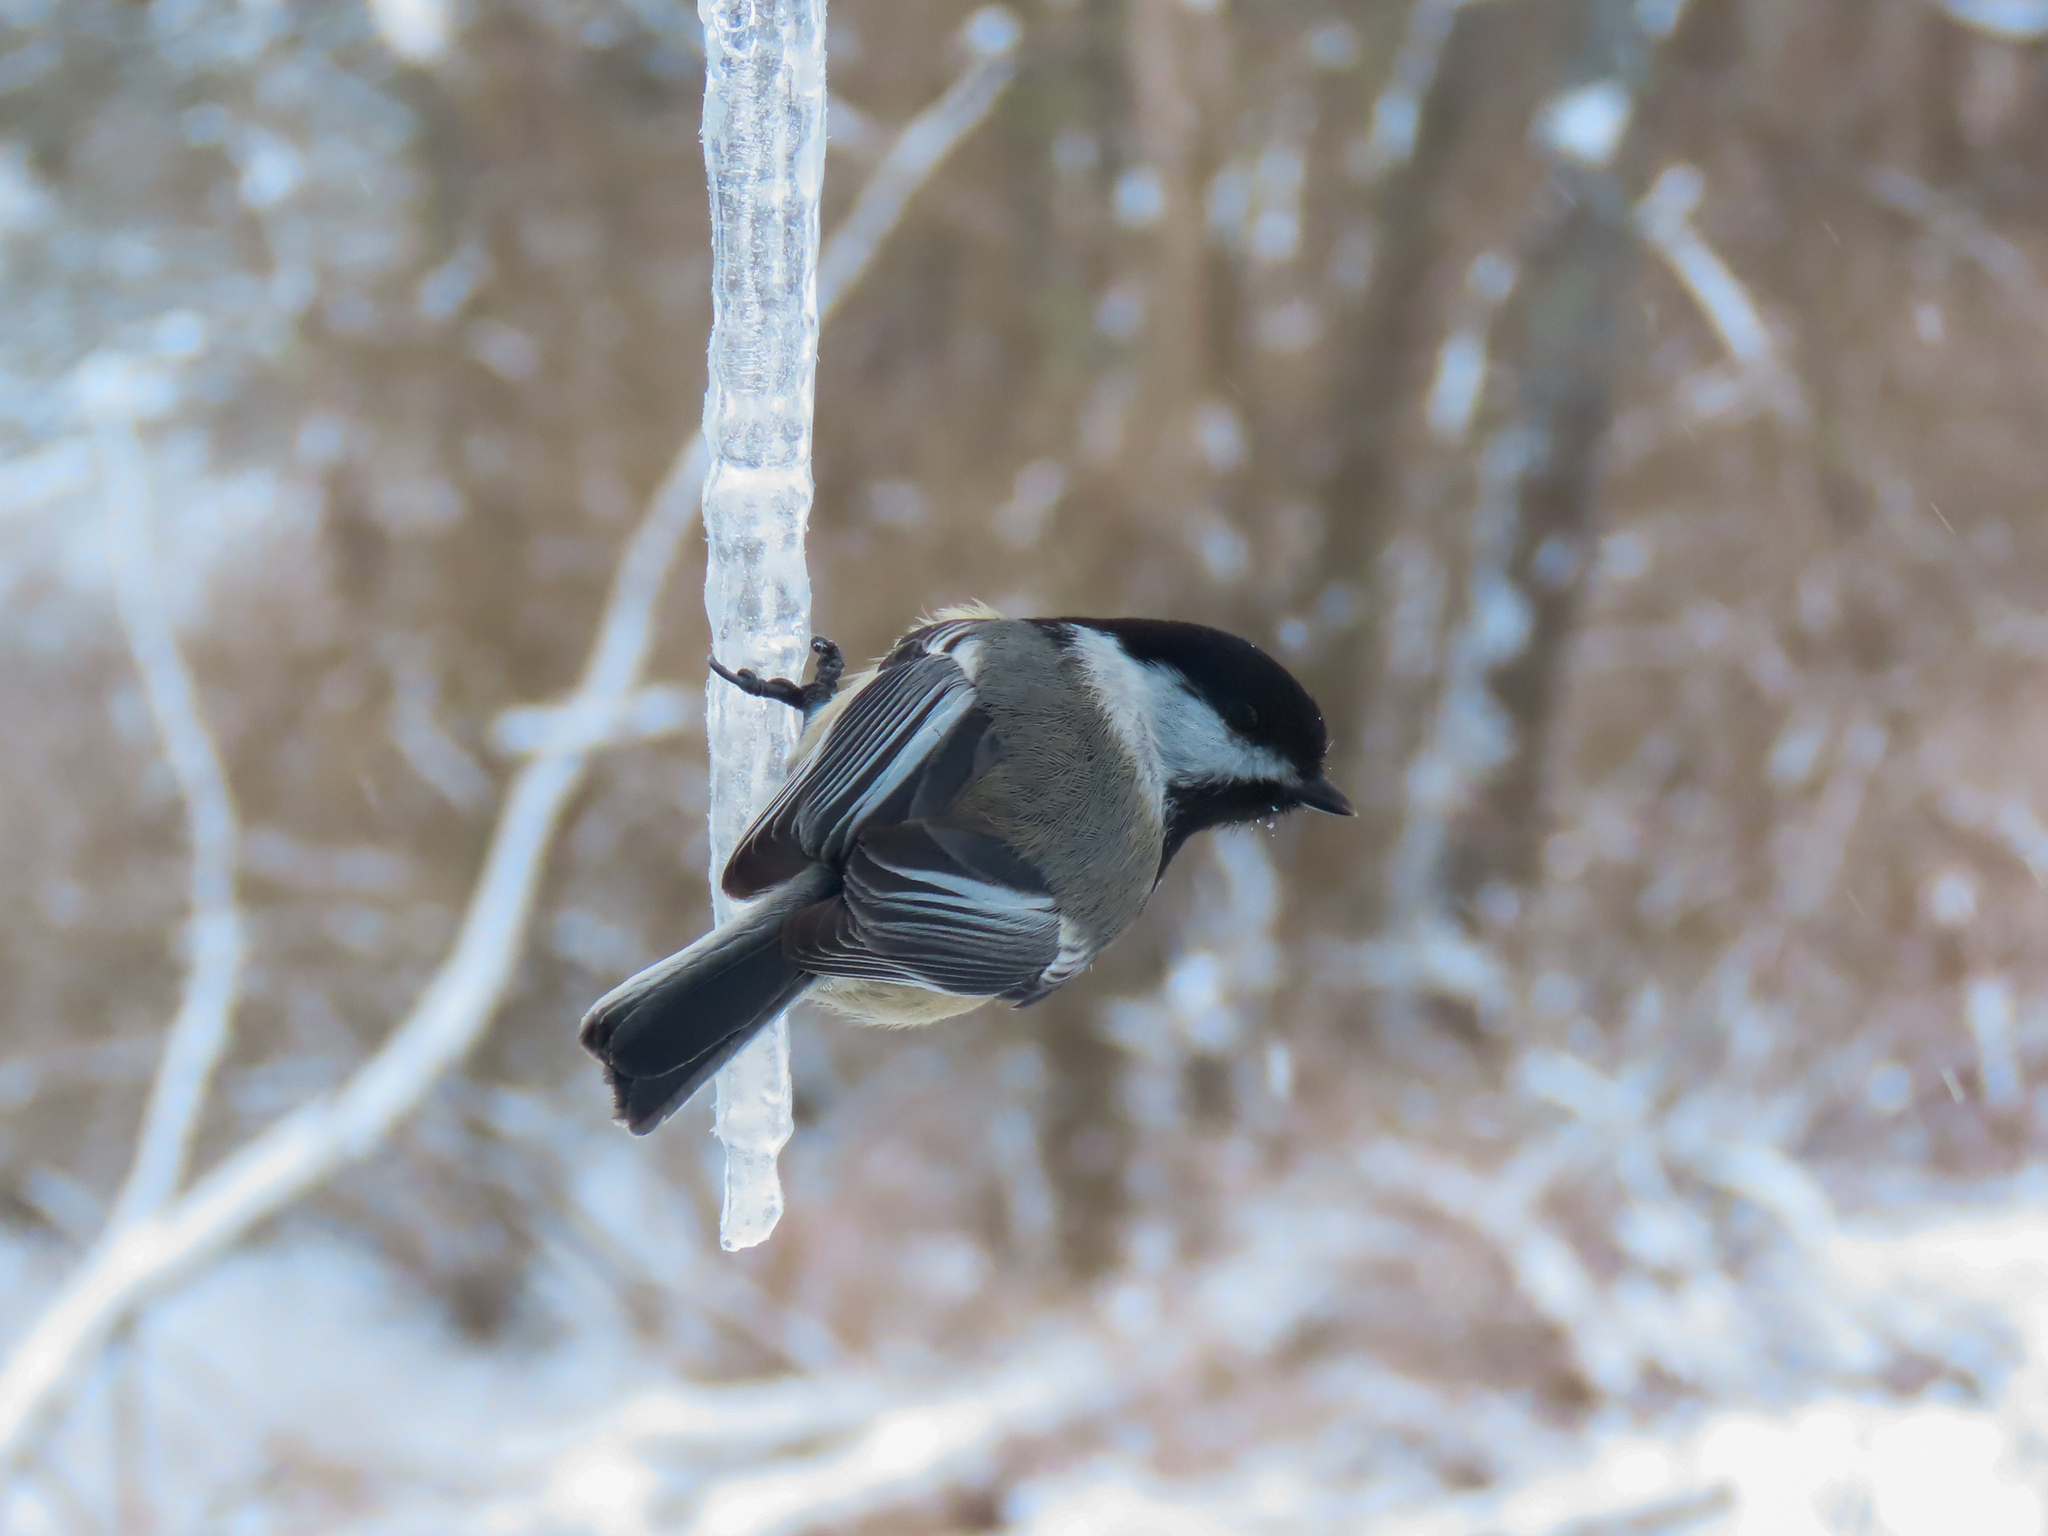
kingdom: Animalia
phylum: Chordata
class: Aves
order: Passeriformes
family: Paridae
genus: Poecile
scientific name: Poecile atricapillus
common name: Black-capped chickadee
